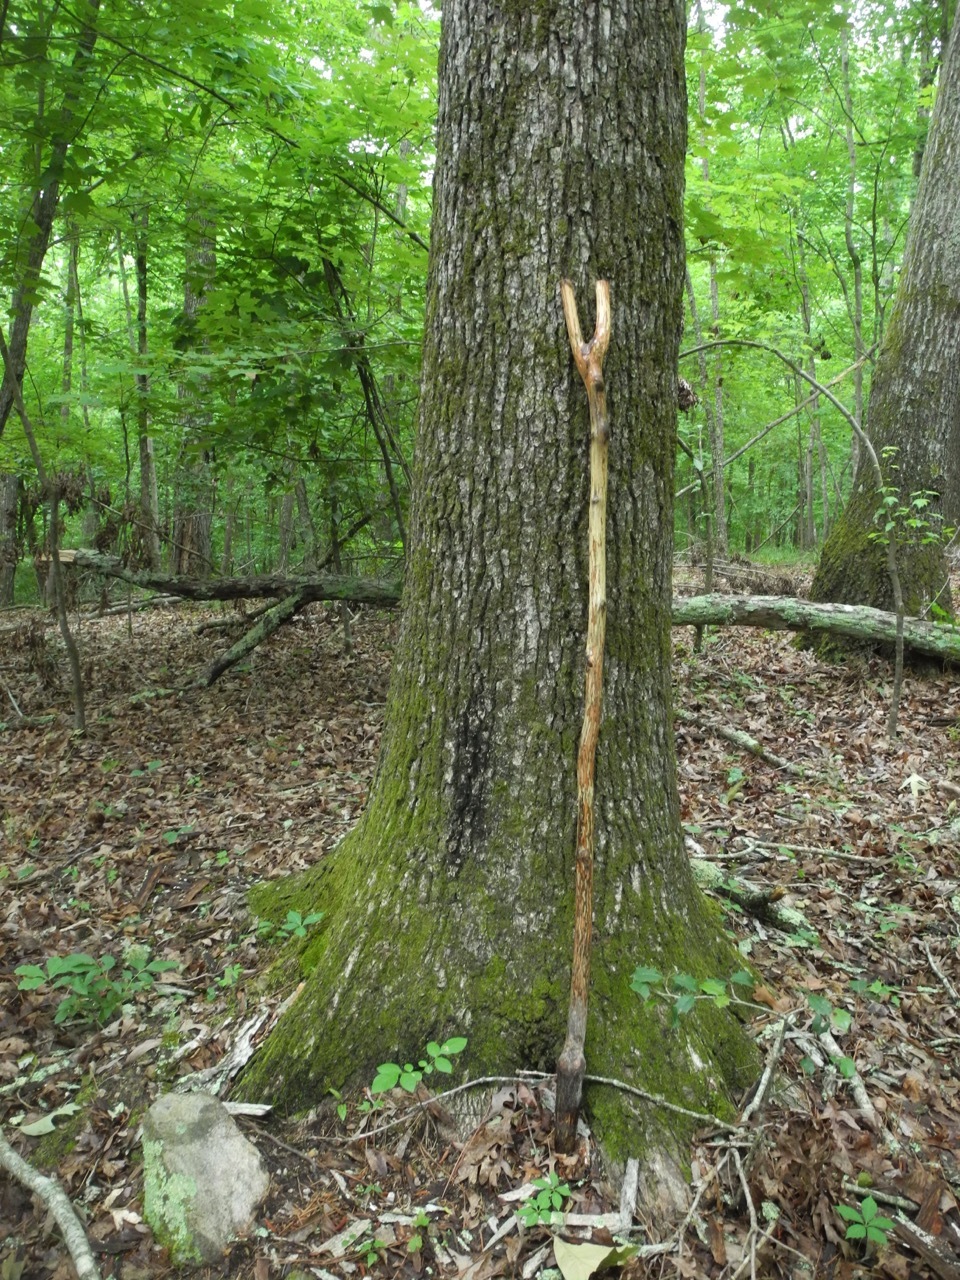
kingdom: Plantae
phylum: Tracheophyta
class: Magnoliopsida
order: Fagales
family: Fagaceae
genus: Quercus
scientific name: Quercus alba
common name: White oak
